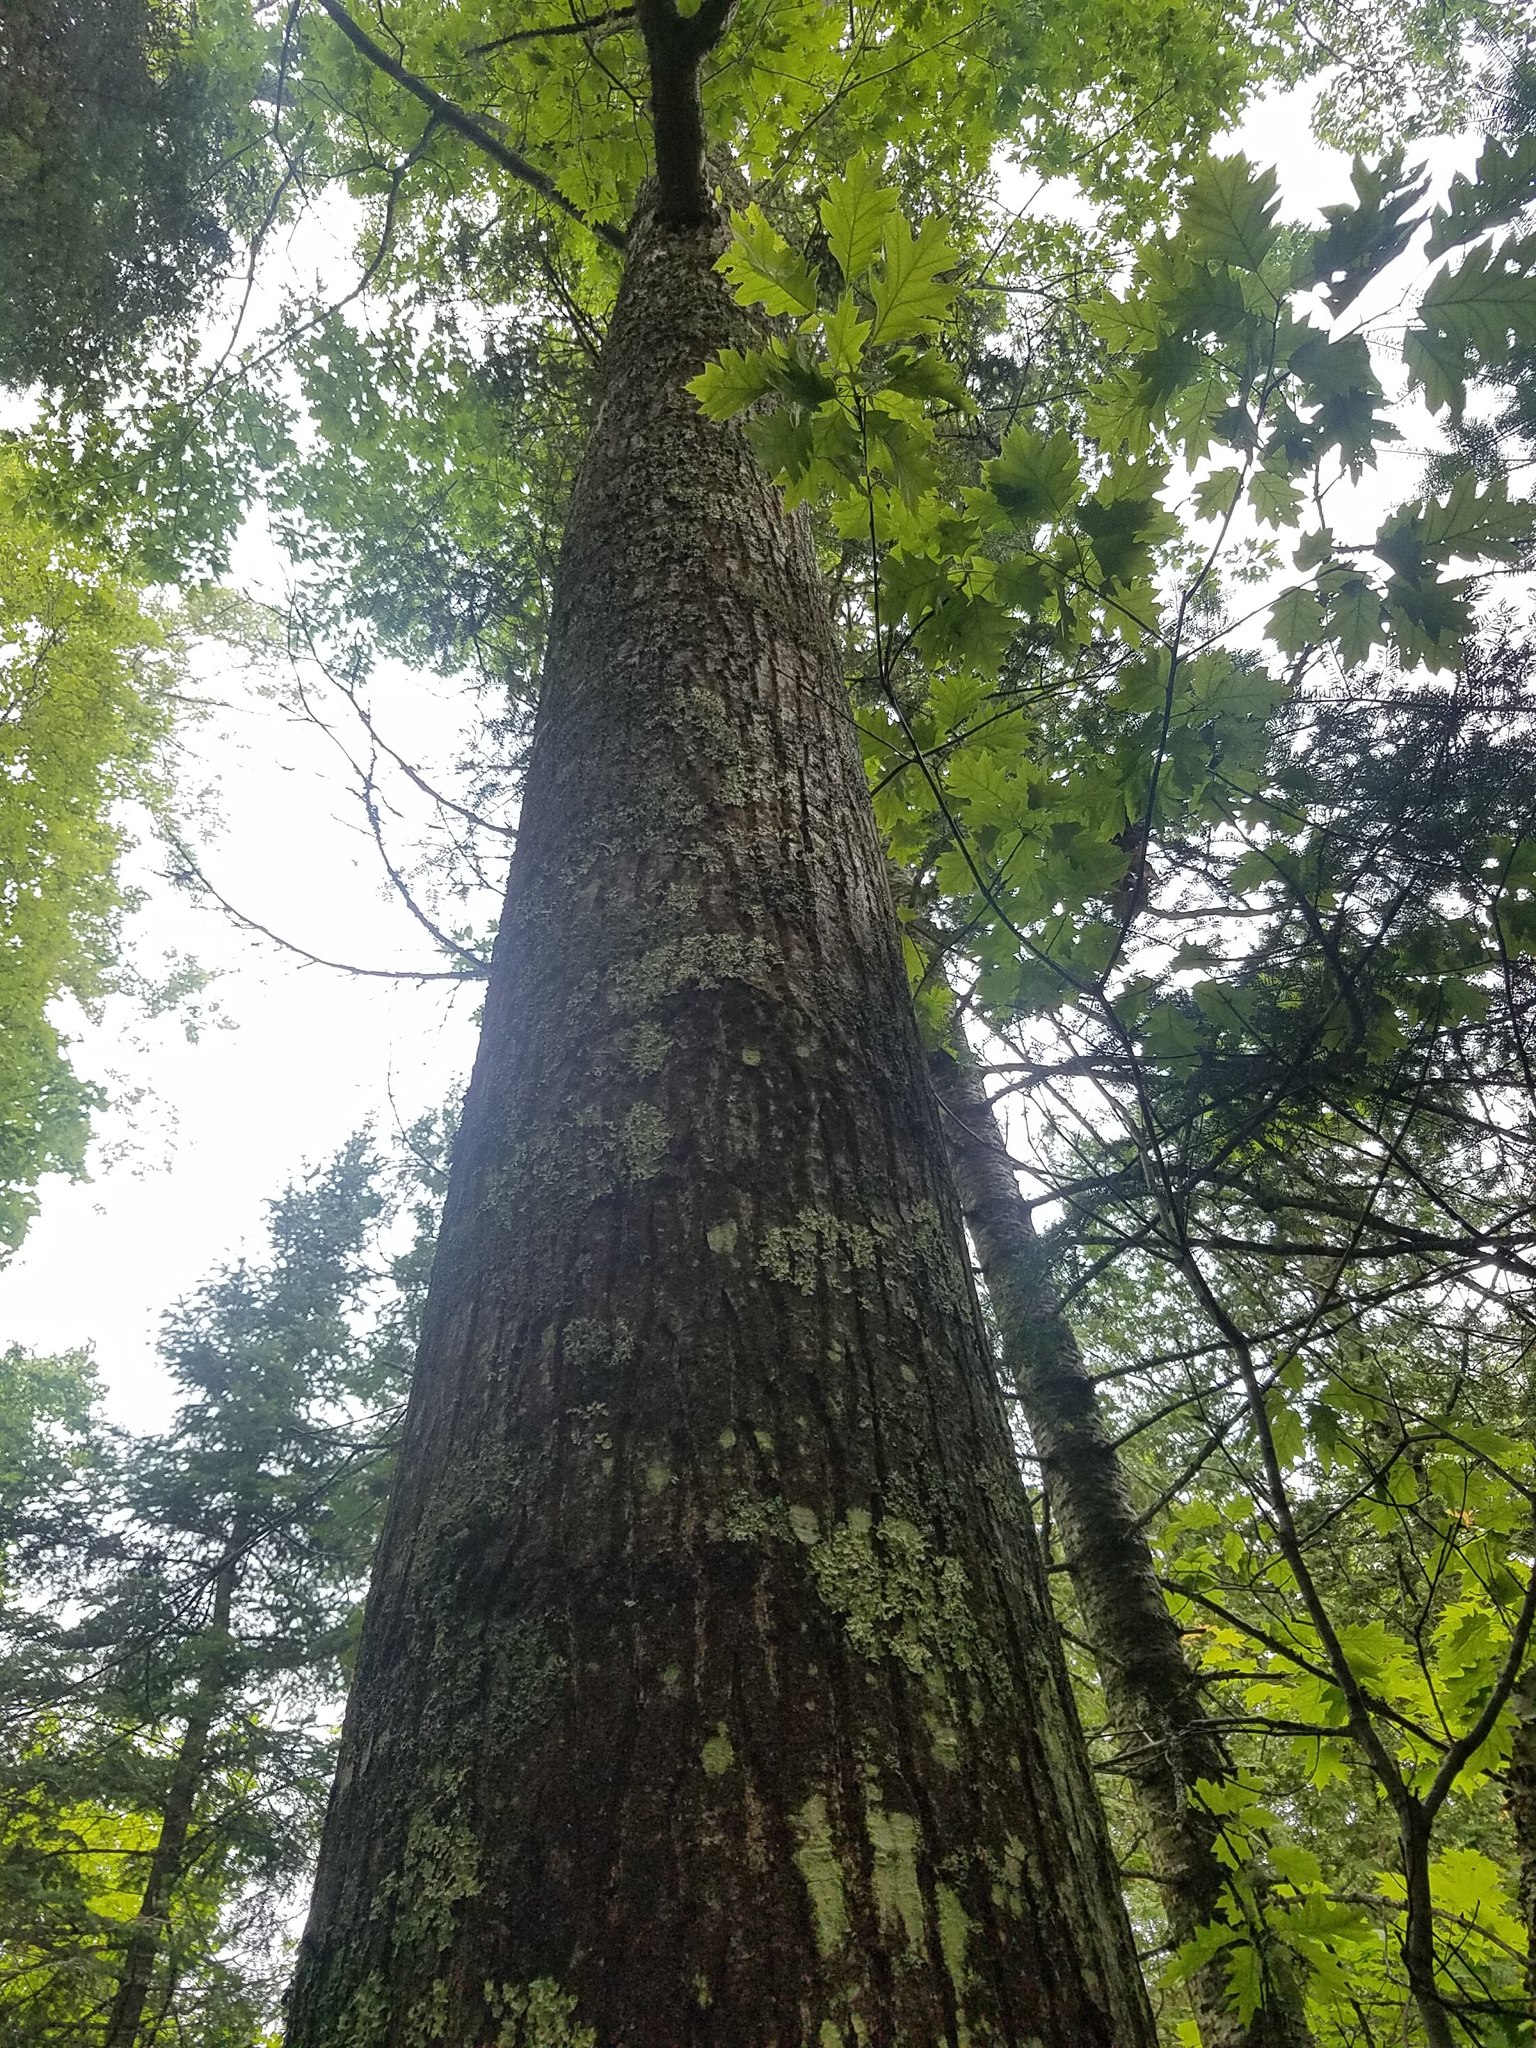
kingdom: Plantae
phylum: Tracheophyta
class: Magnoliopsida
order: Fagales
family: Fagaceae
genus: Quercus
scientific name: Quercus rubra
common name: Red oak
